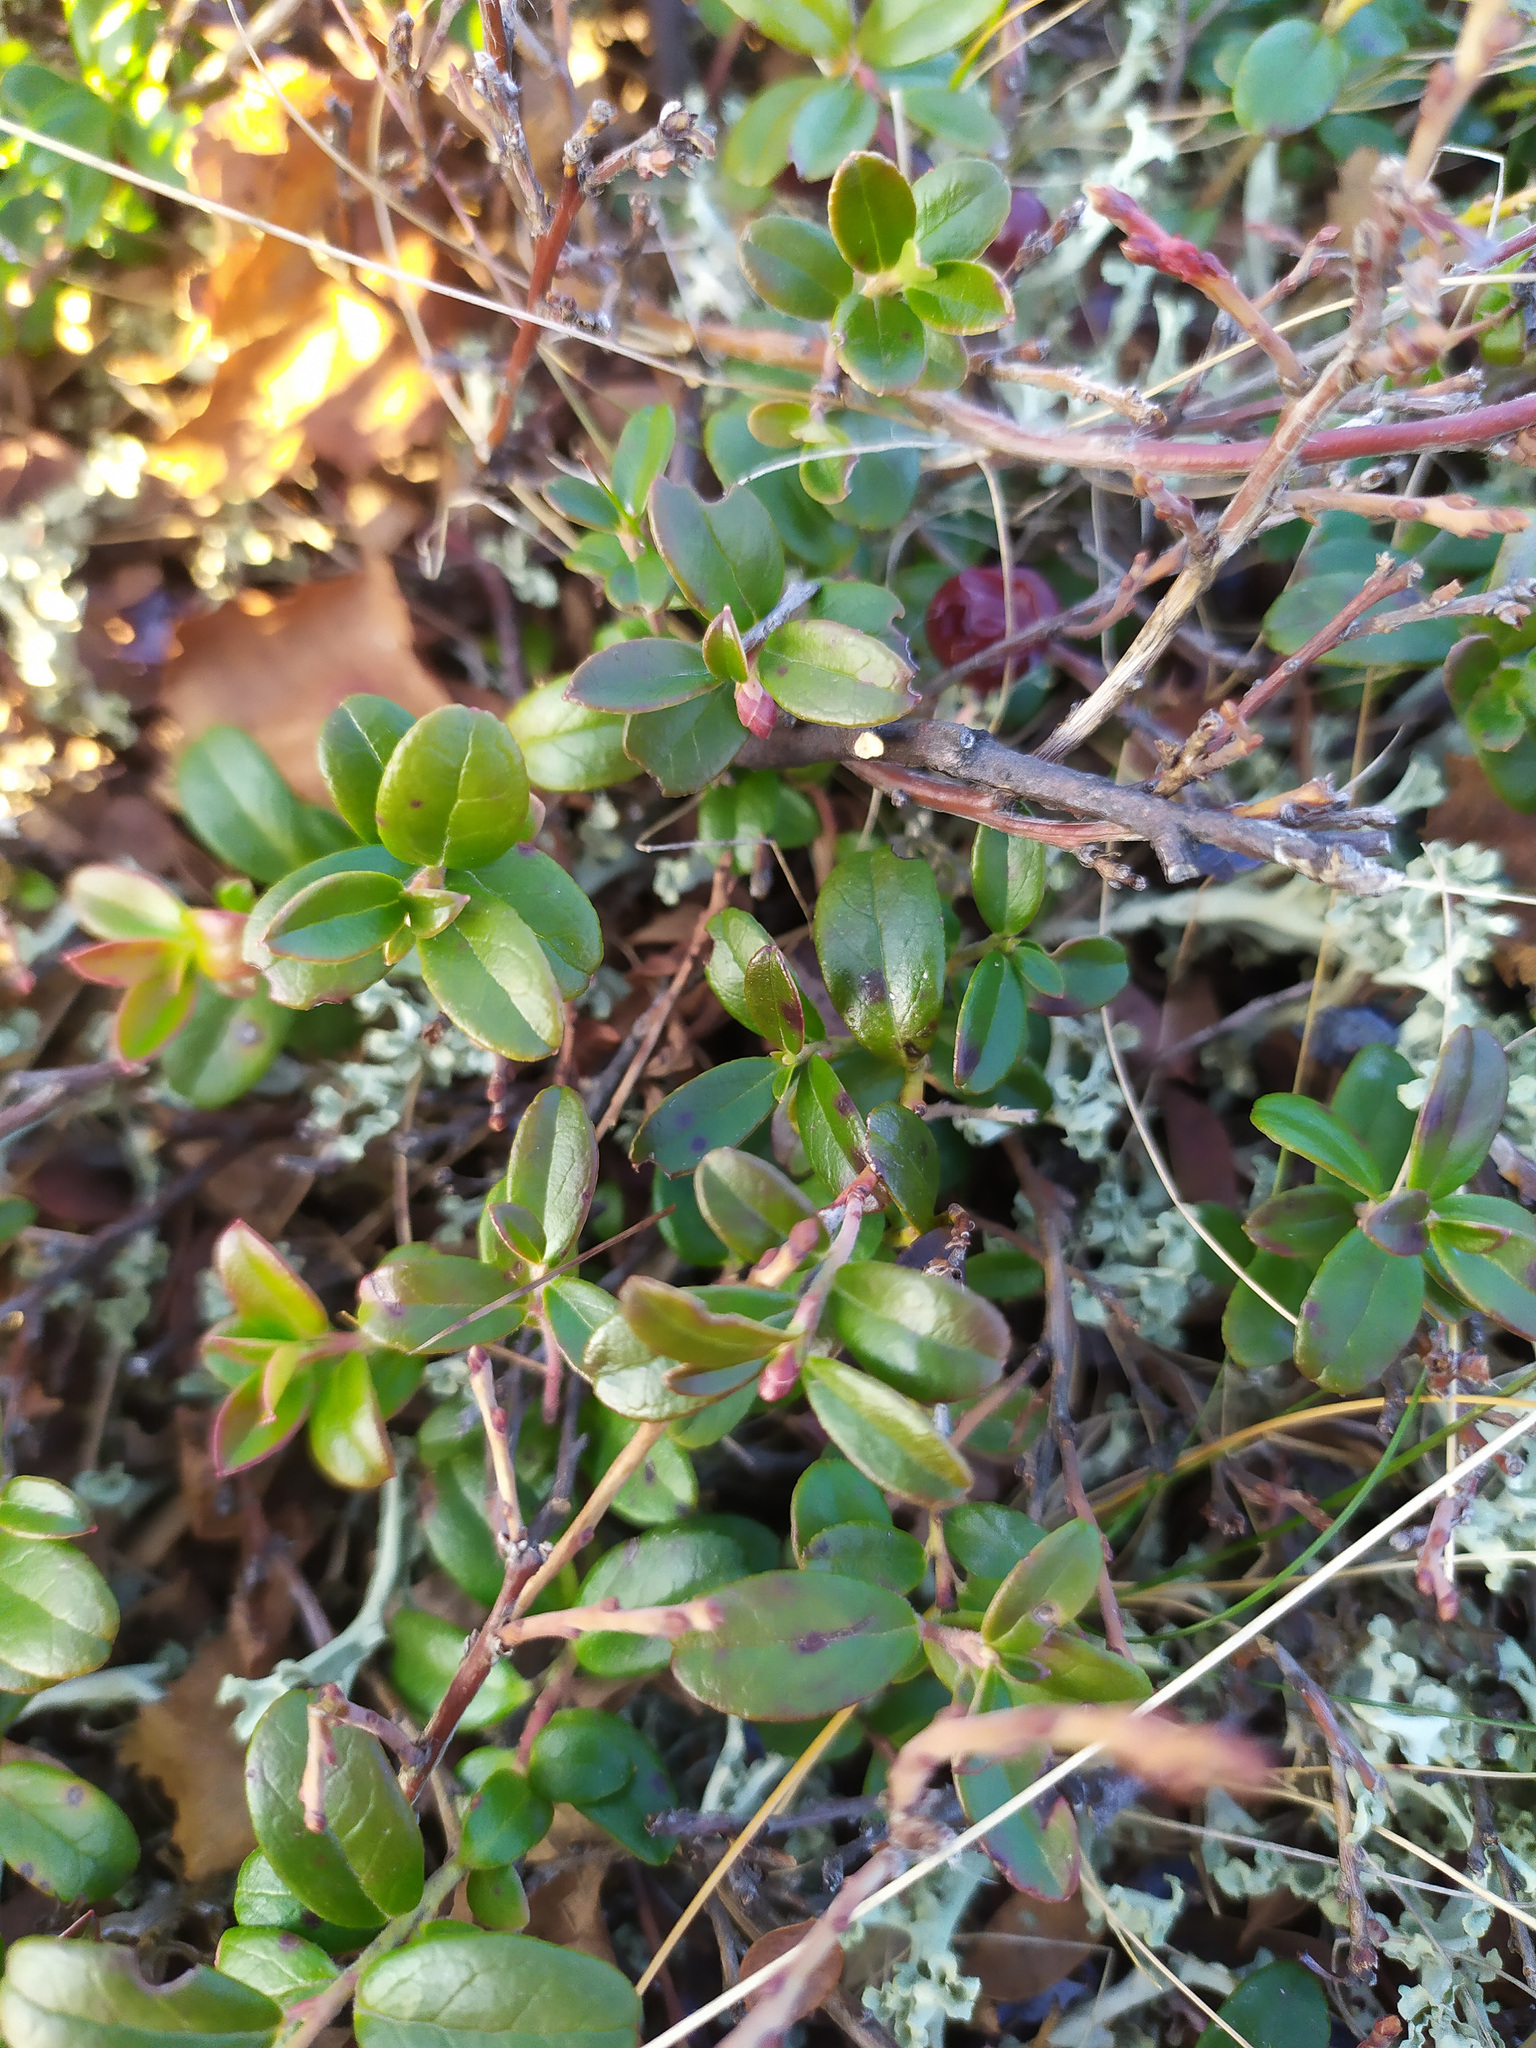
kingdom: Plantae
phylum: Tracheophyta
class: Magnoliopsida
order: Ericales
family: Ericaceae
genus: Vaccinium
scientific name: Vaccinium vitis-idaea
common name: Cowberry
